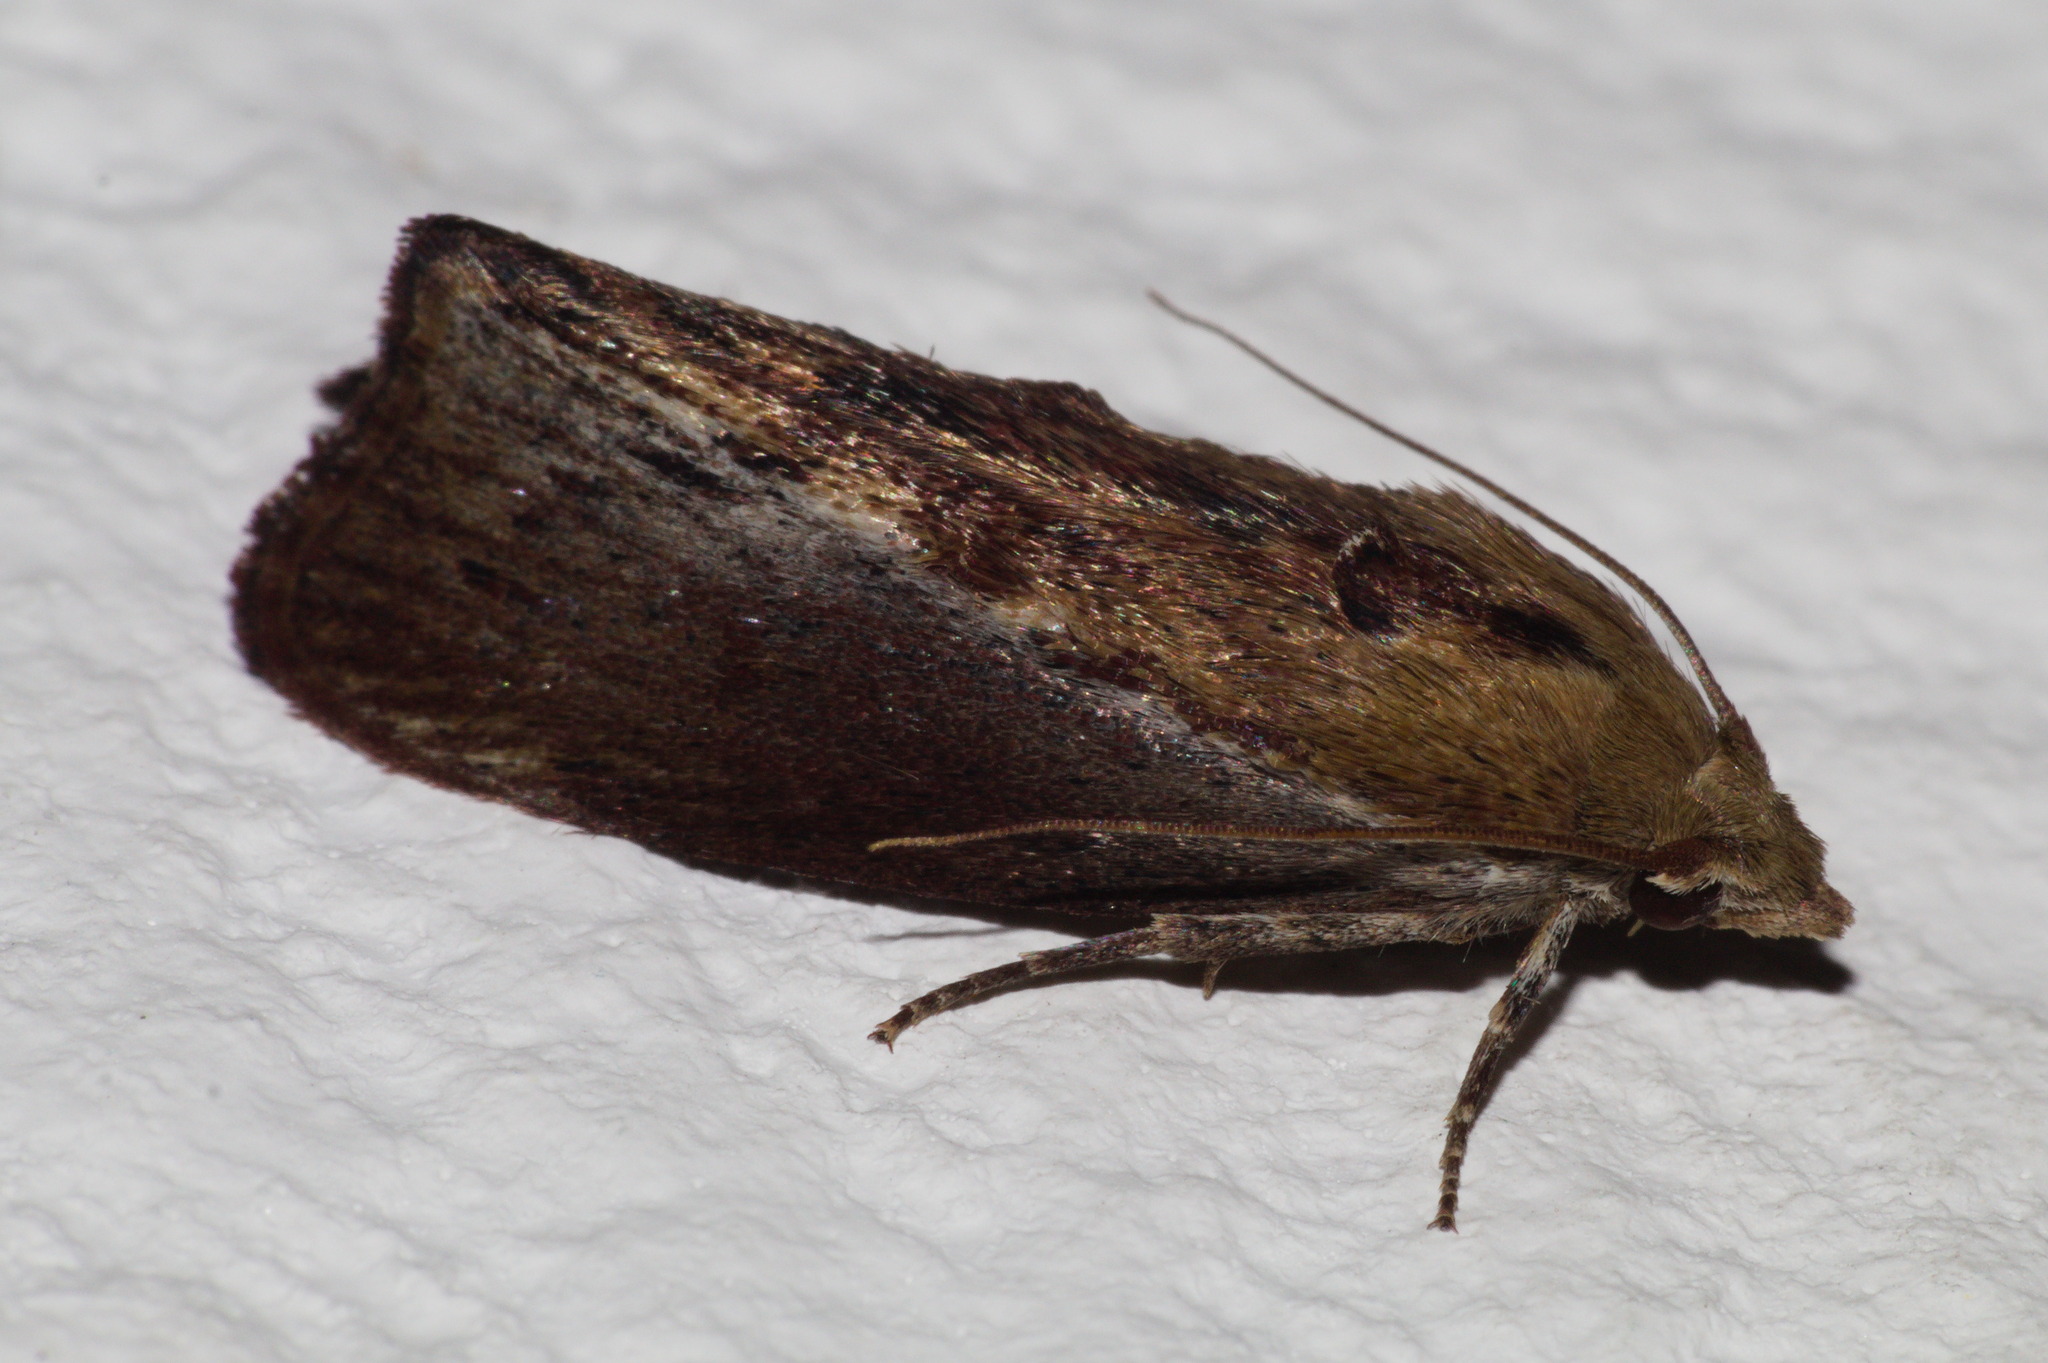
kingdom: Animalia
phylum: Arthropoda
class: Insecta
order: Lepidoptera
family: Pyralidae
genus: Galleria
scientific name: Galleria mellonella
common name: Greater wax moth
